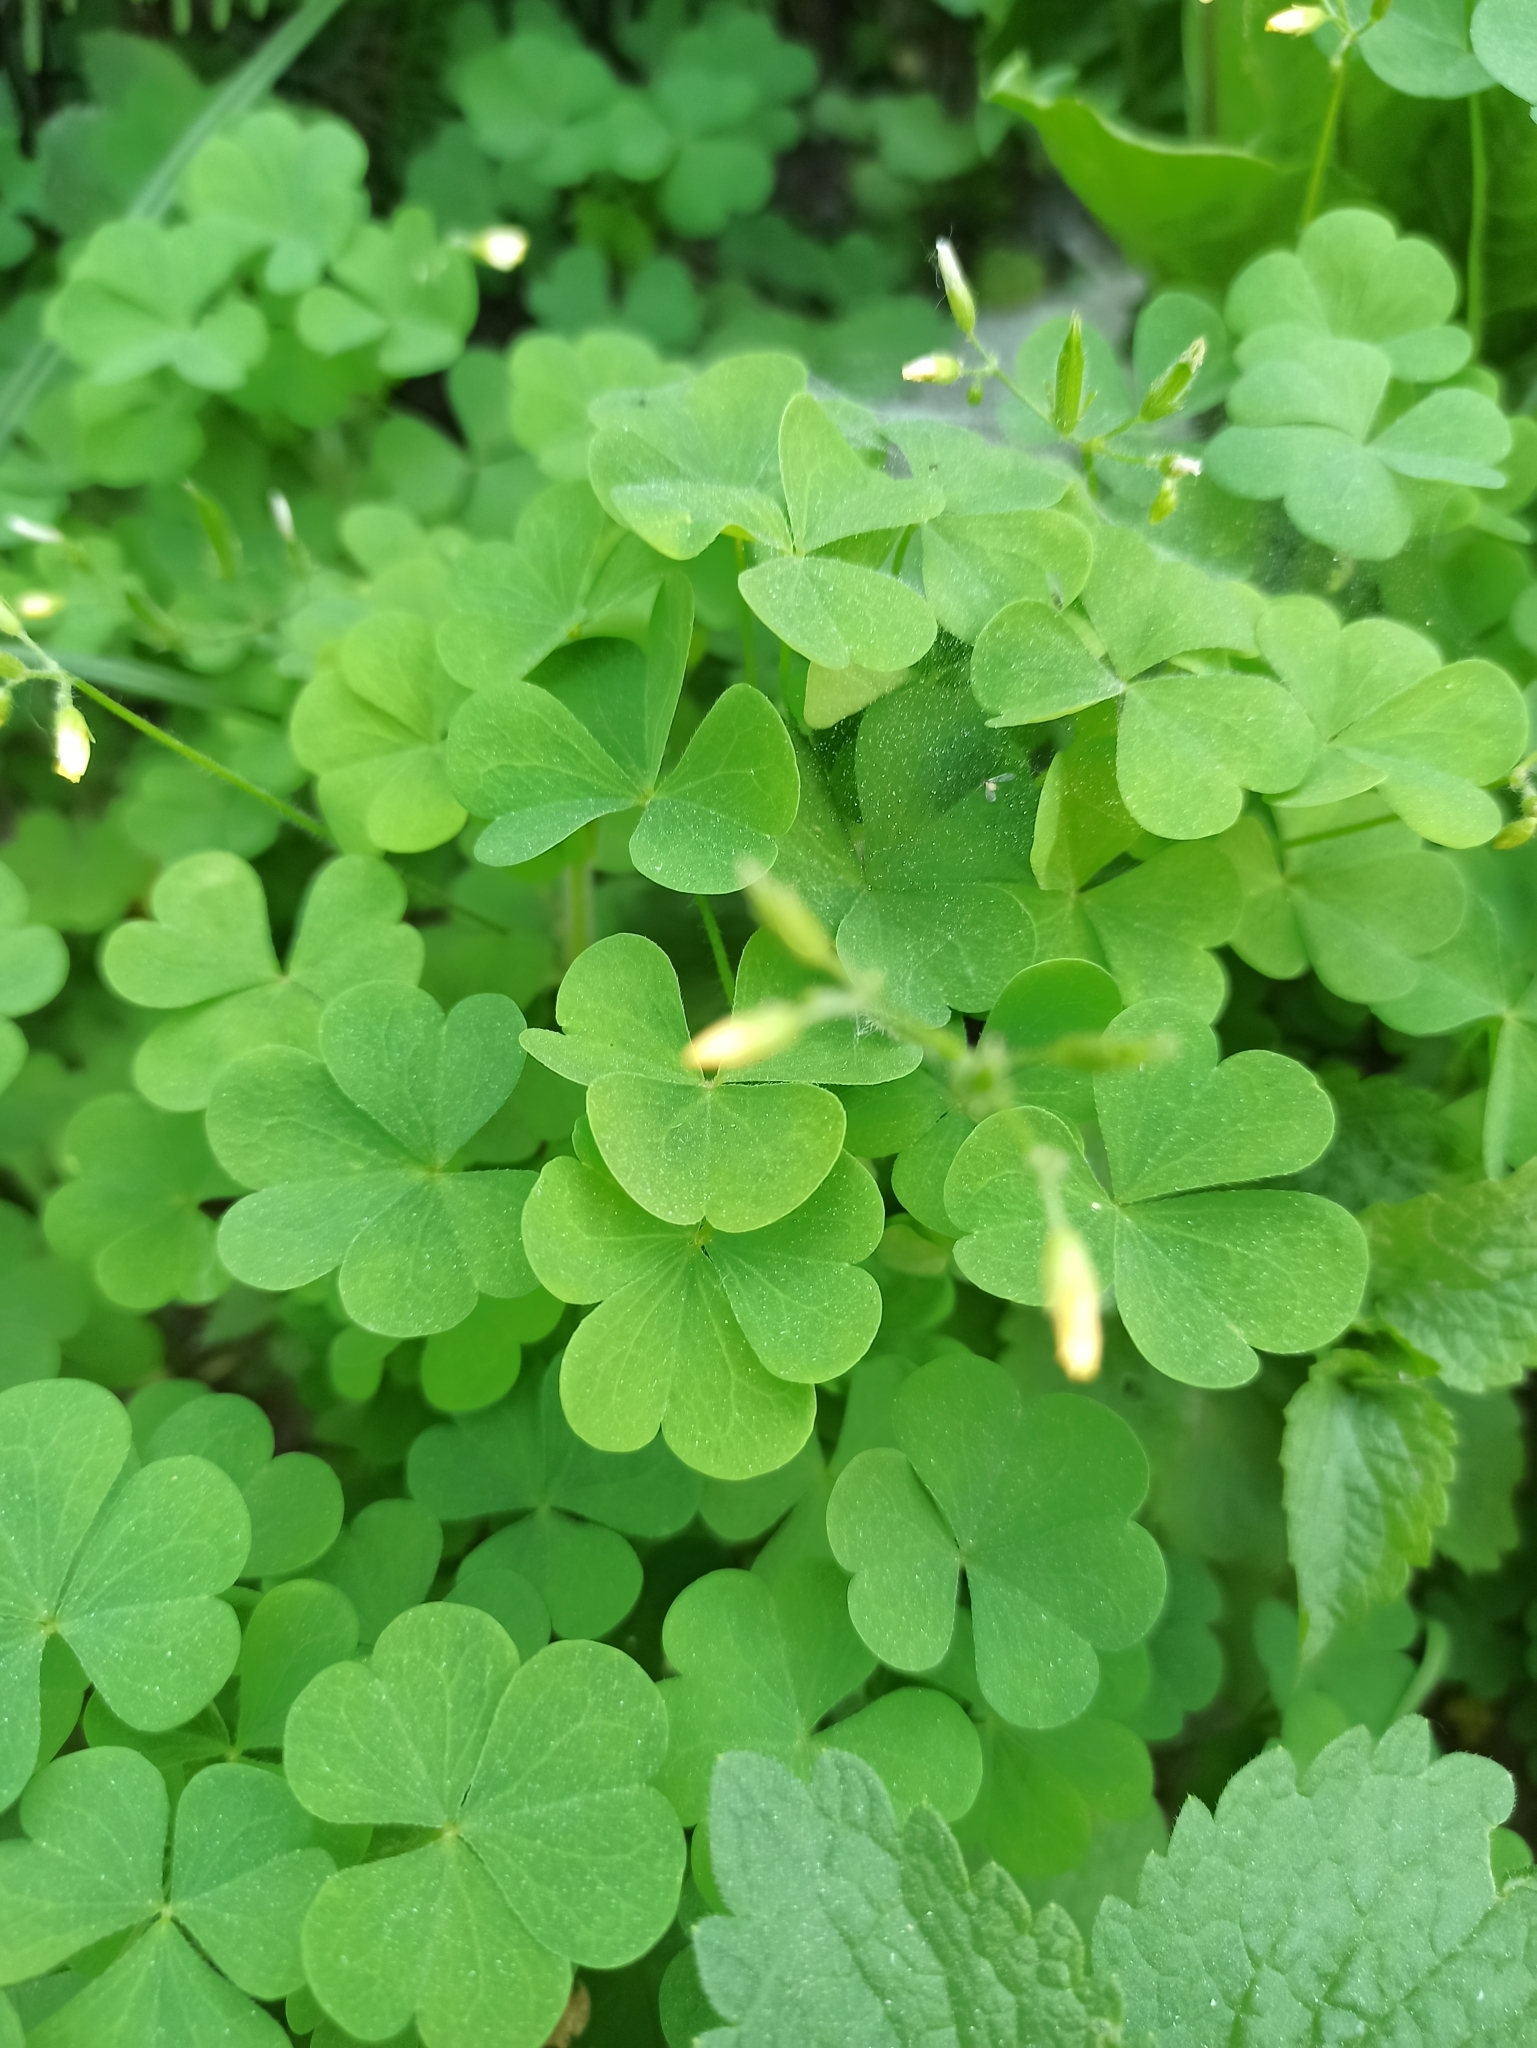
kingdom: Plantae
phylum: Tracheophyta
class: Magnoliopsida
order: Oxalidales
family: Oxalidaceae
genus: Oxalis
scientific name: Oxalis stricta
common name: Upright yellow-sorrel
